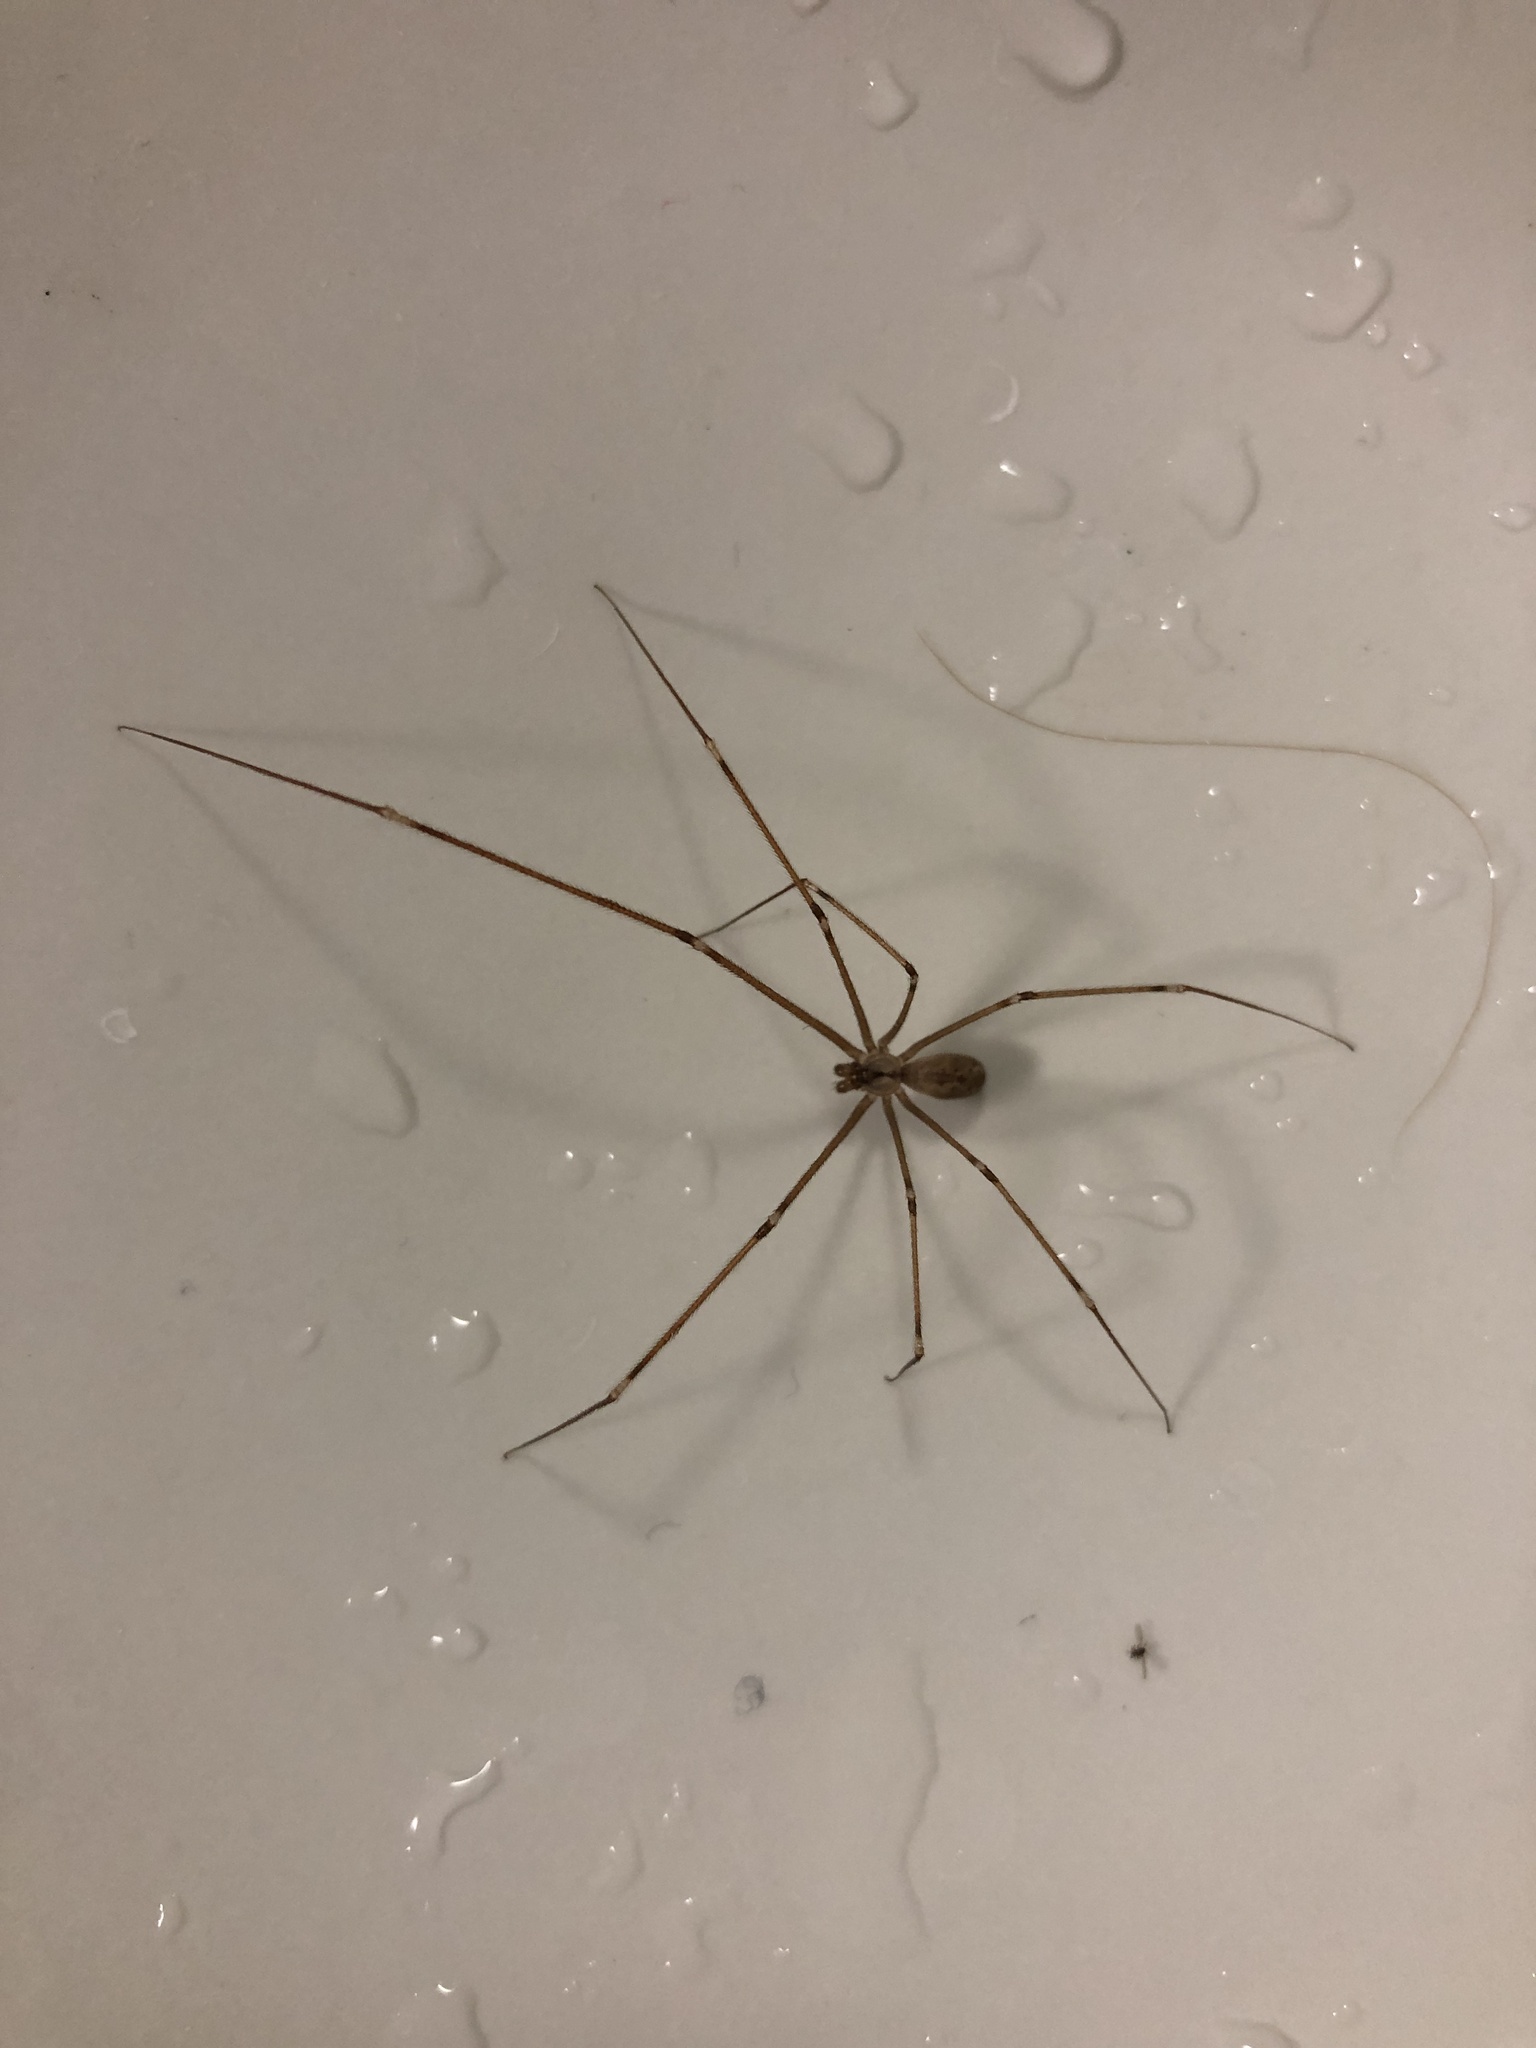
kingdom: Animalia
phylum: Arthropoda
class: Arachnida
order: Araneae
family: Pholcidae
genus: Holocnemus
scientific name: Holocnemus pluchei
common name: Marbled cellar spider
